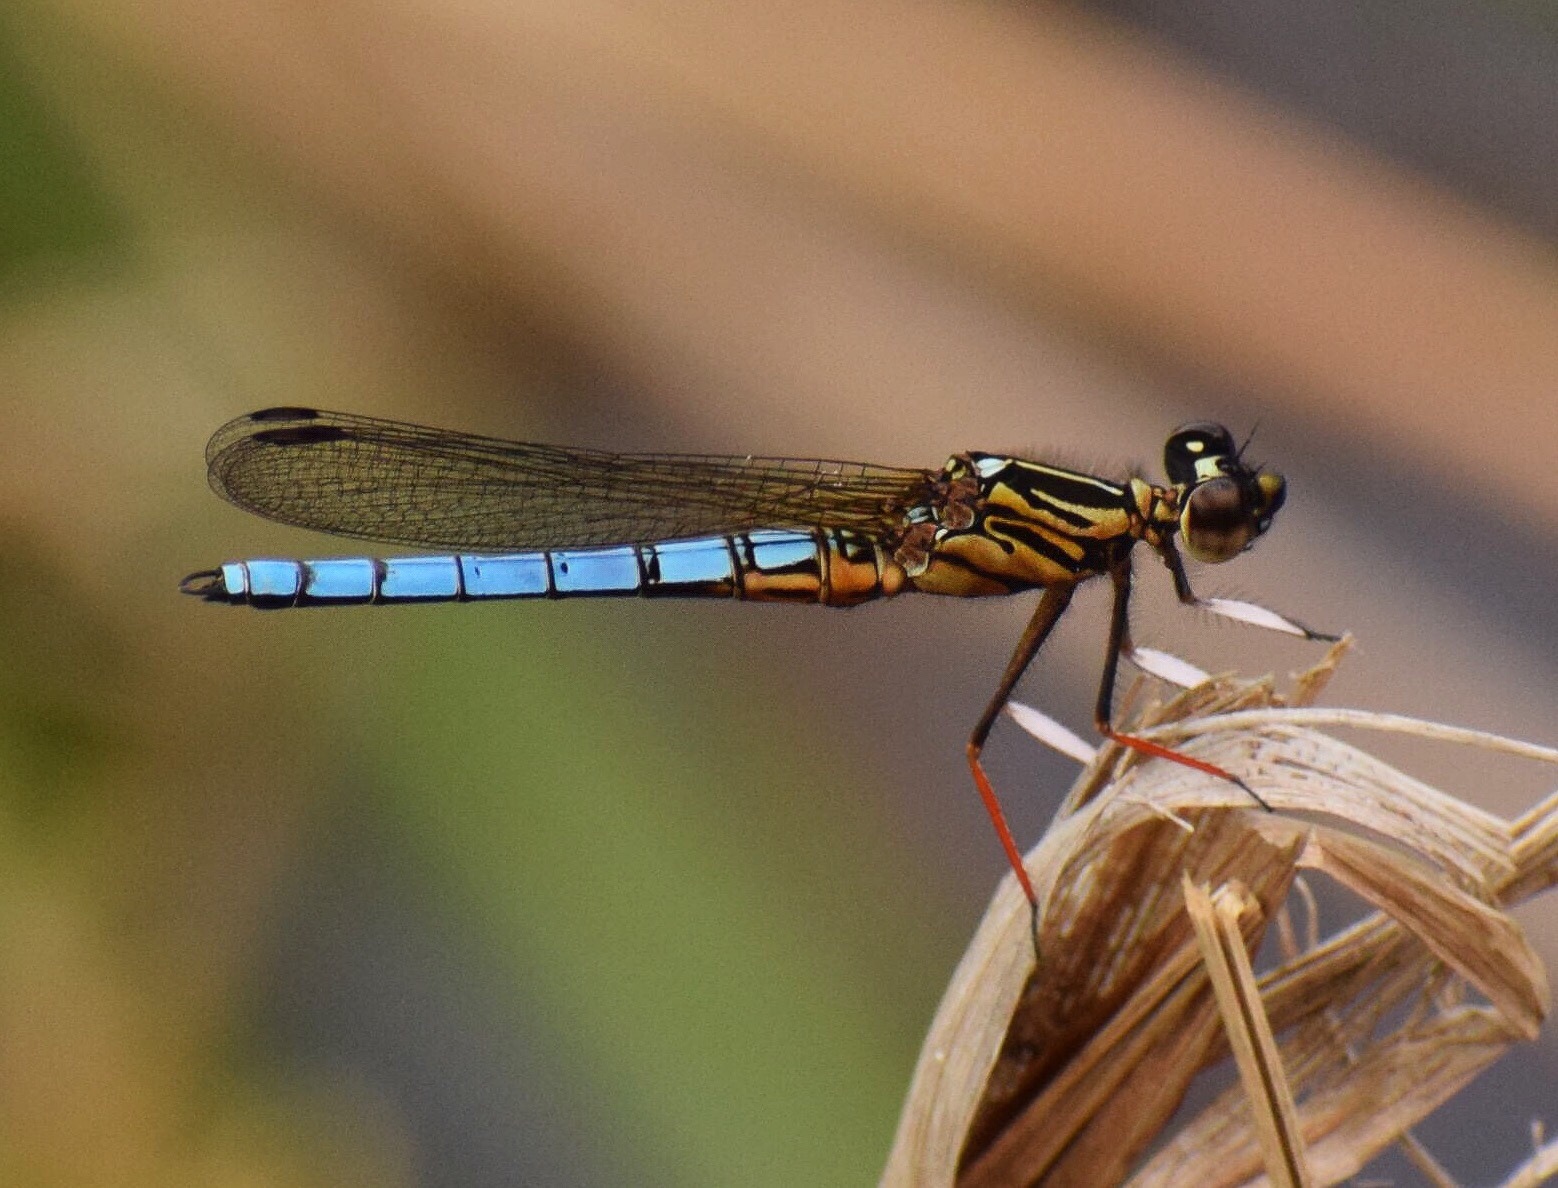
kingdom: Animalia
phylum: Arthropoda
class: Insecta
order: Odonata
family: Chlorocyphidae
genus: Platycypha
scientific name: Platycypha caligata
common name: Dancing jewel
